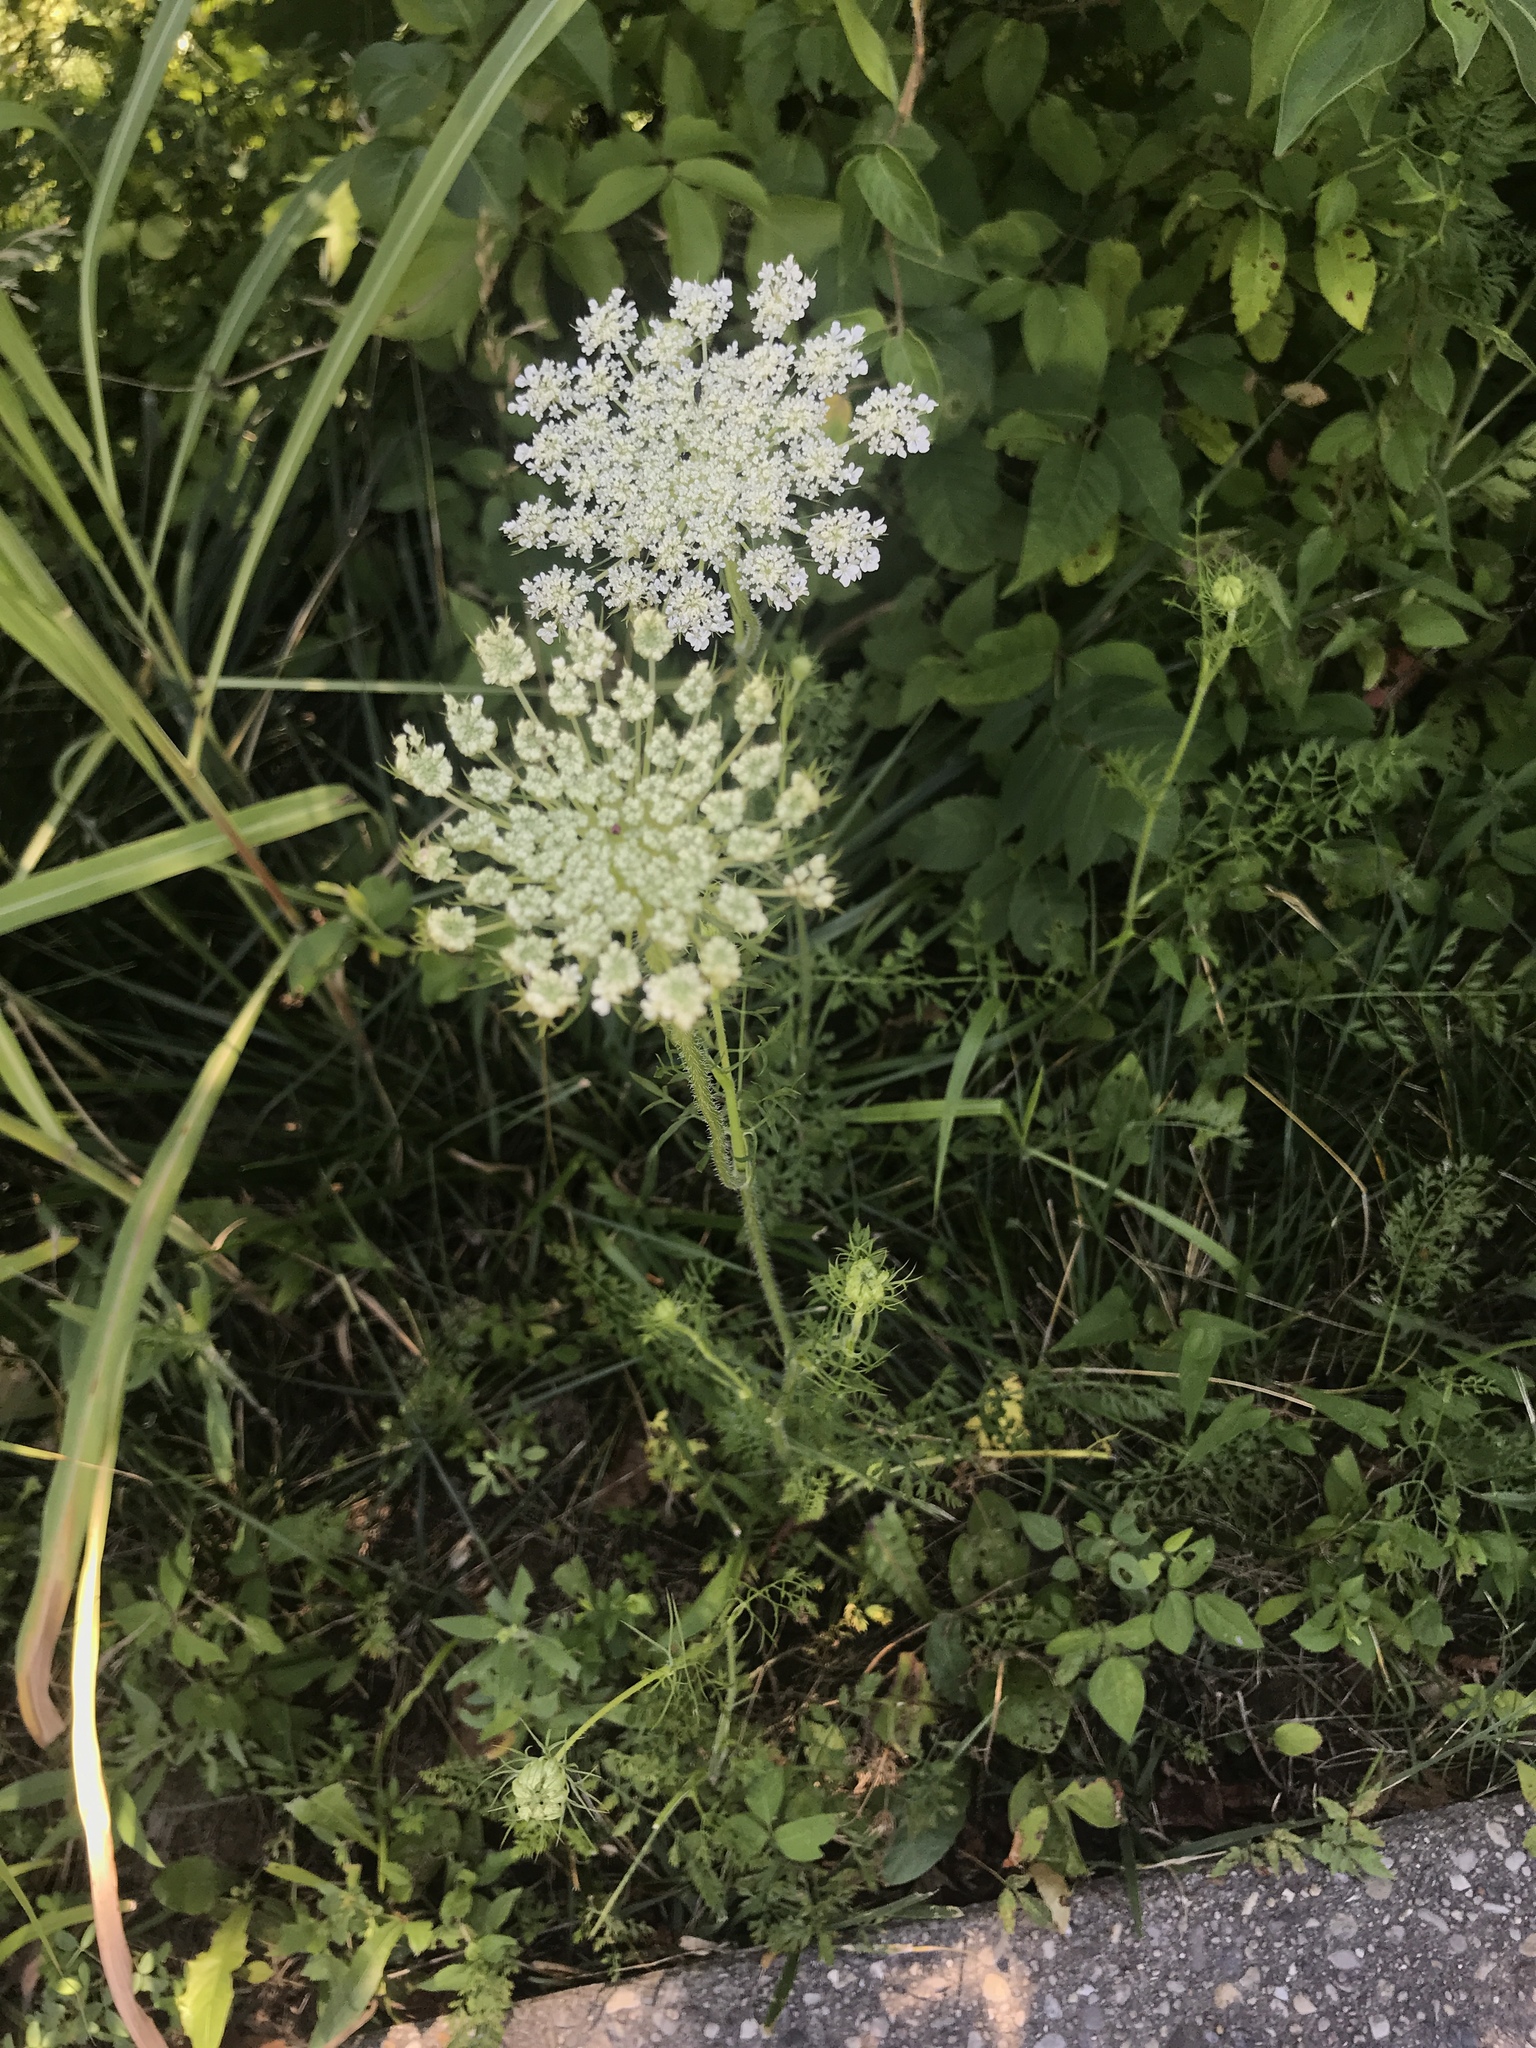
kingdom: Plantae
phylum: Tracheophyta
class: Magnoliopsida
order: Apiales
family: Apiaceae
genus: Daucus
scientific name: Daucus carota
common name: Wild carrot
